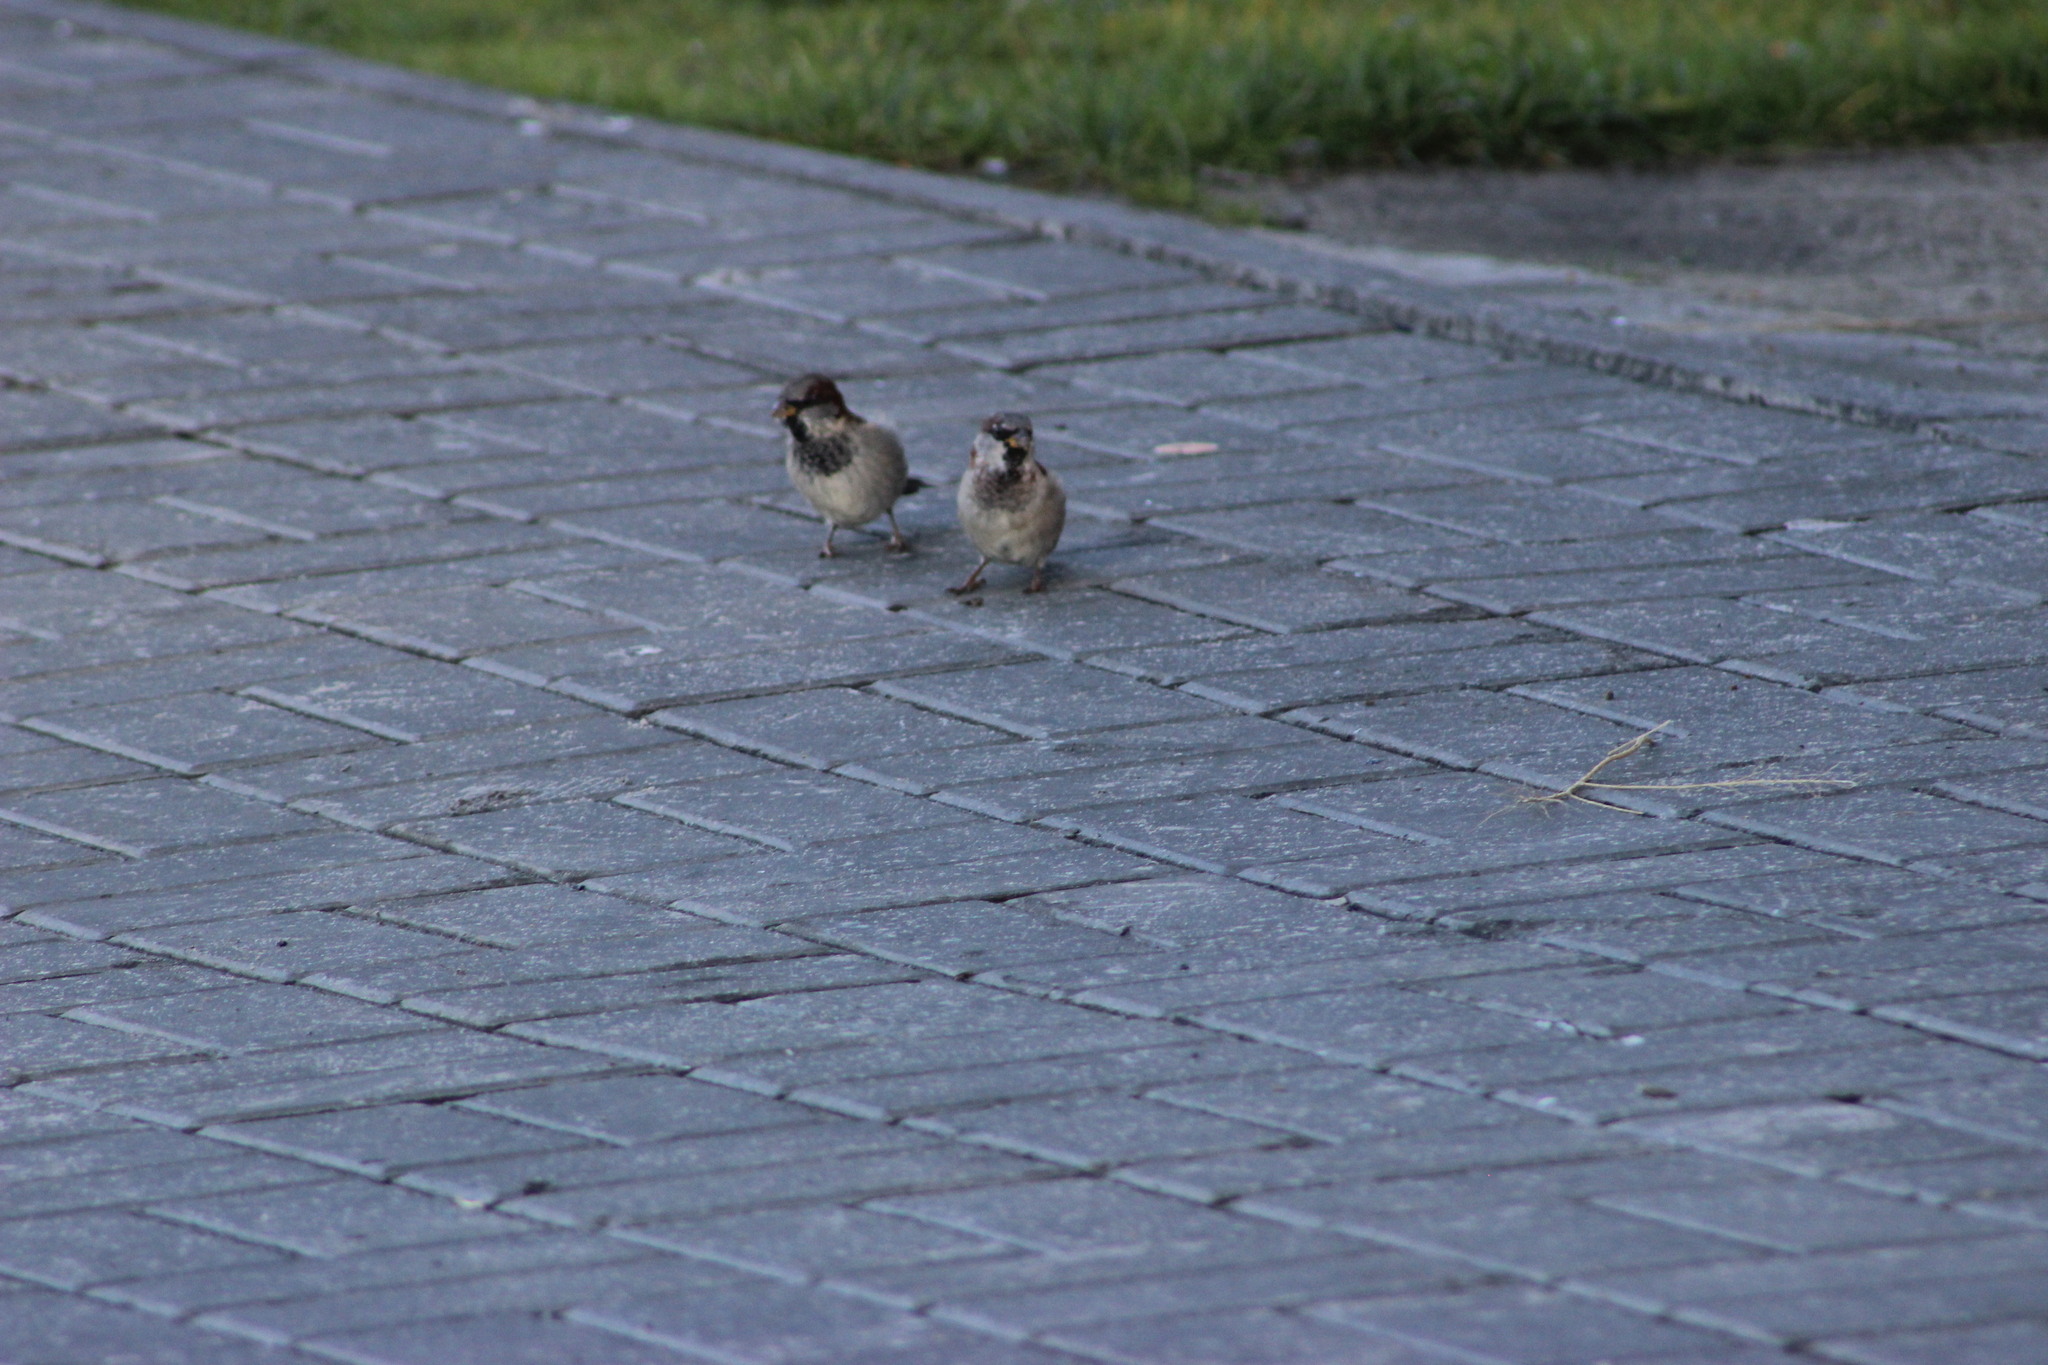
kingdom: Animalia
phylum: Chordata
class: Aves
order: Passeriformes
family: Passeridae
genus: Passer
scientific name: Passer domesticus
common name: House sparrow
